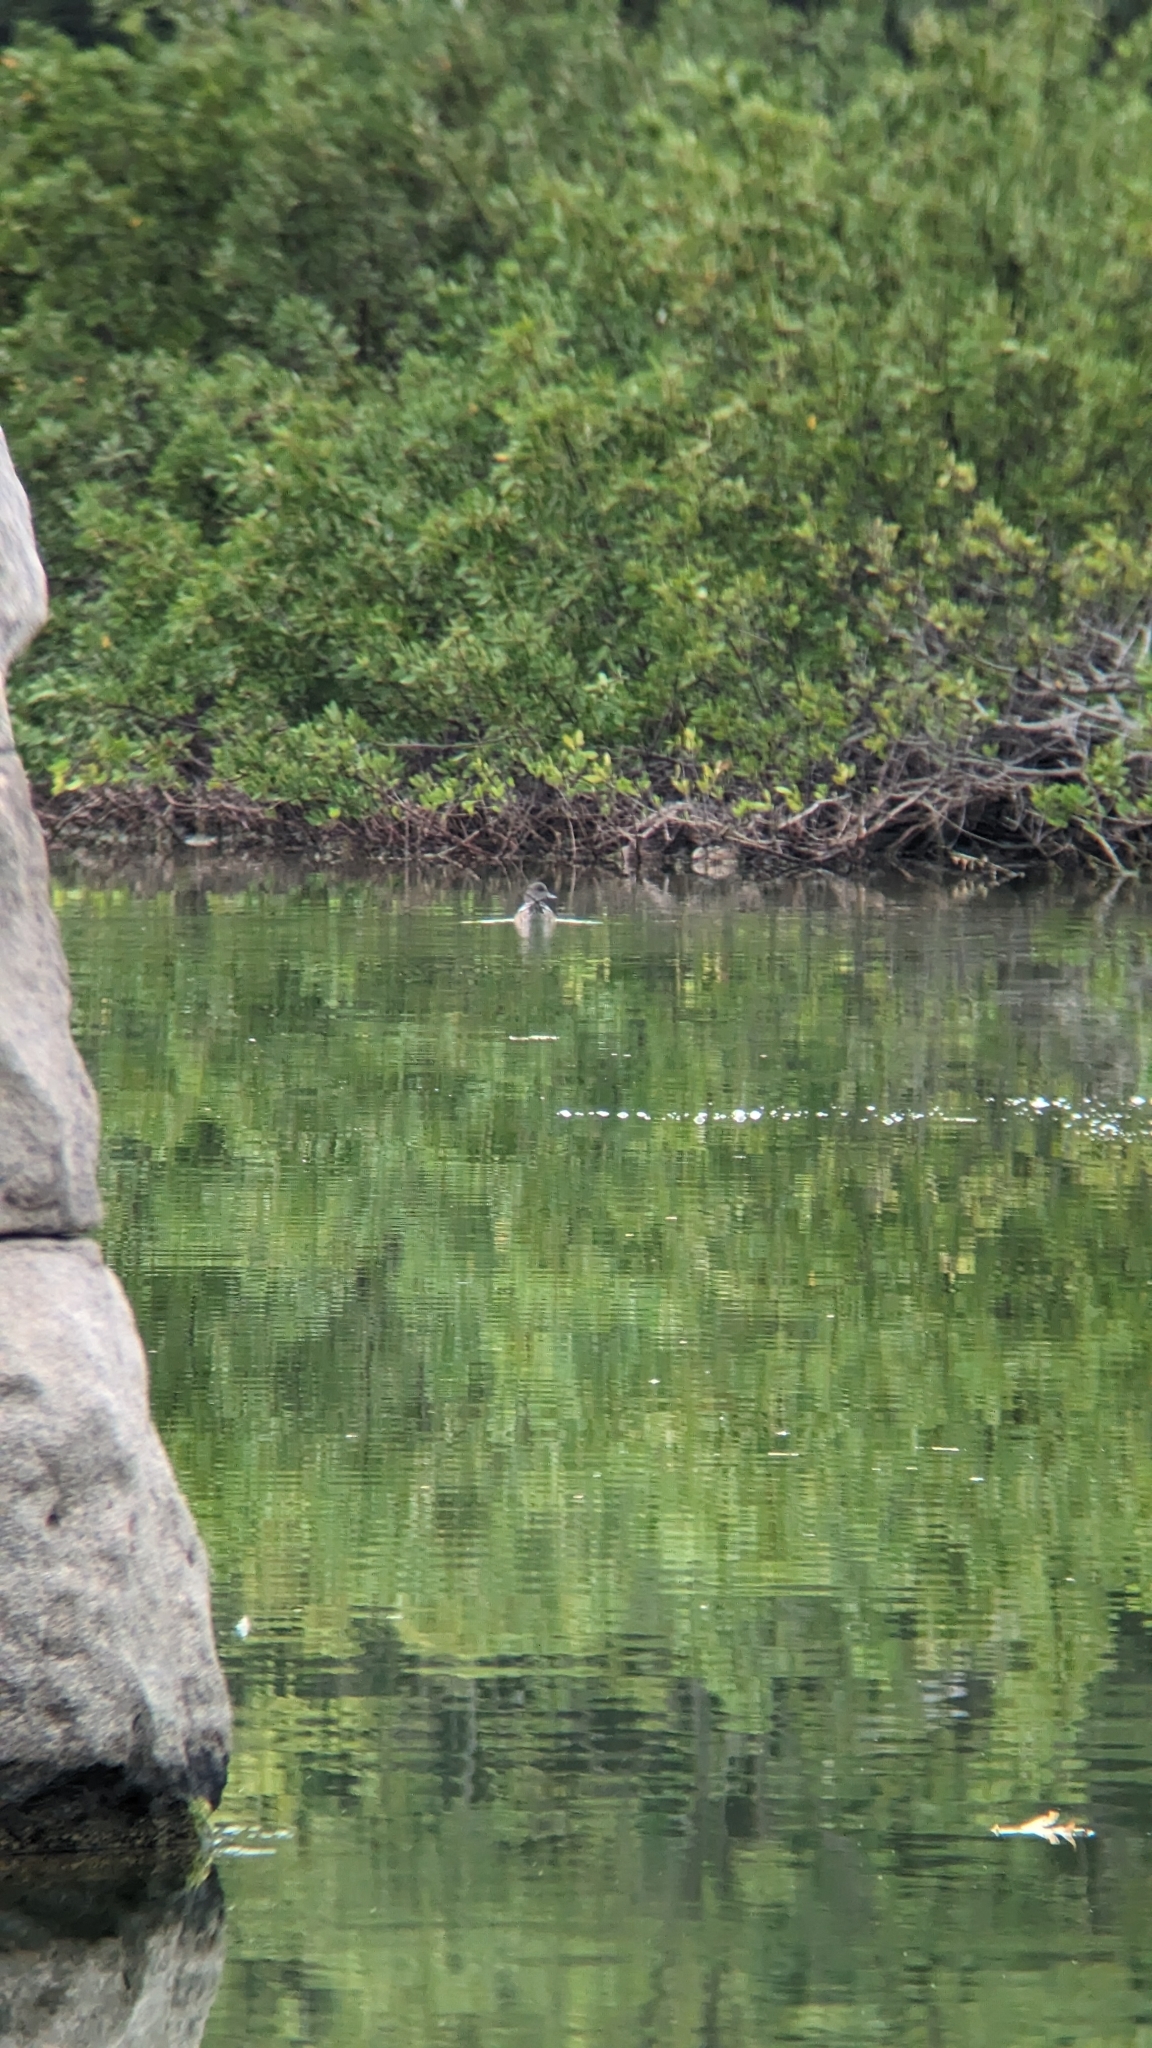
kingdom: Animalia
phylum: Chordata
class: Aves
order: Anseriformes
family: Anatidae
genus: Mareca
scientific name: Mareca americana
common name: American wigeon
